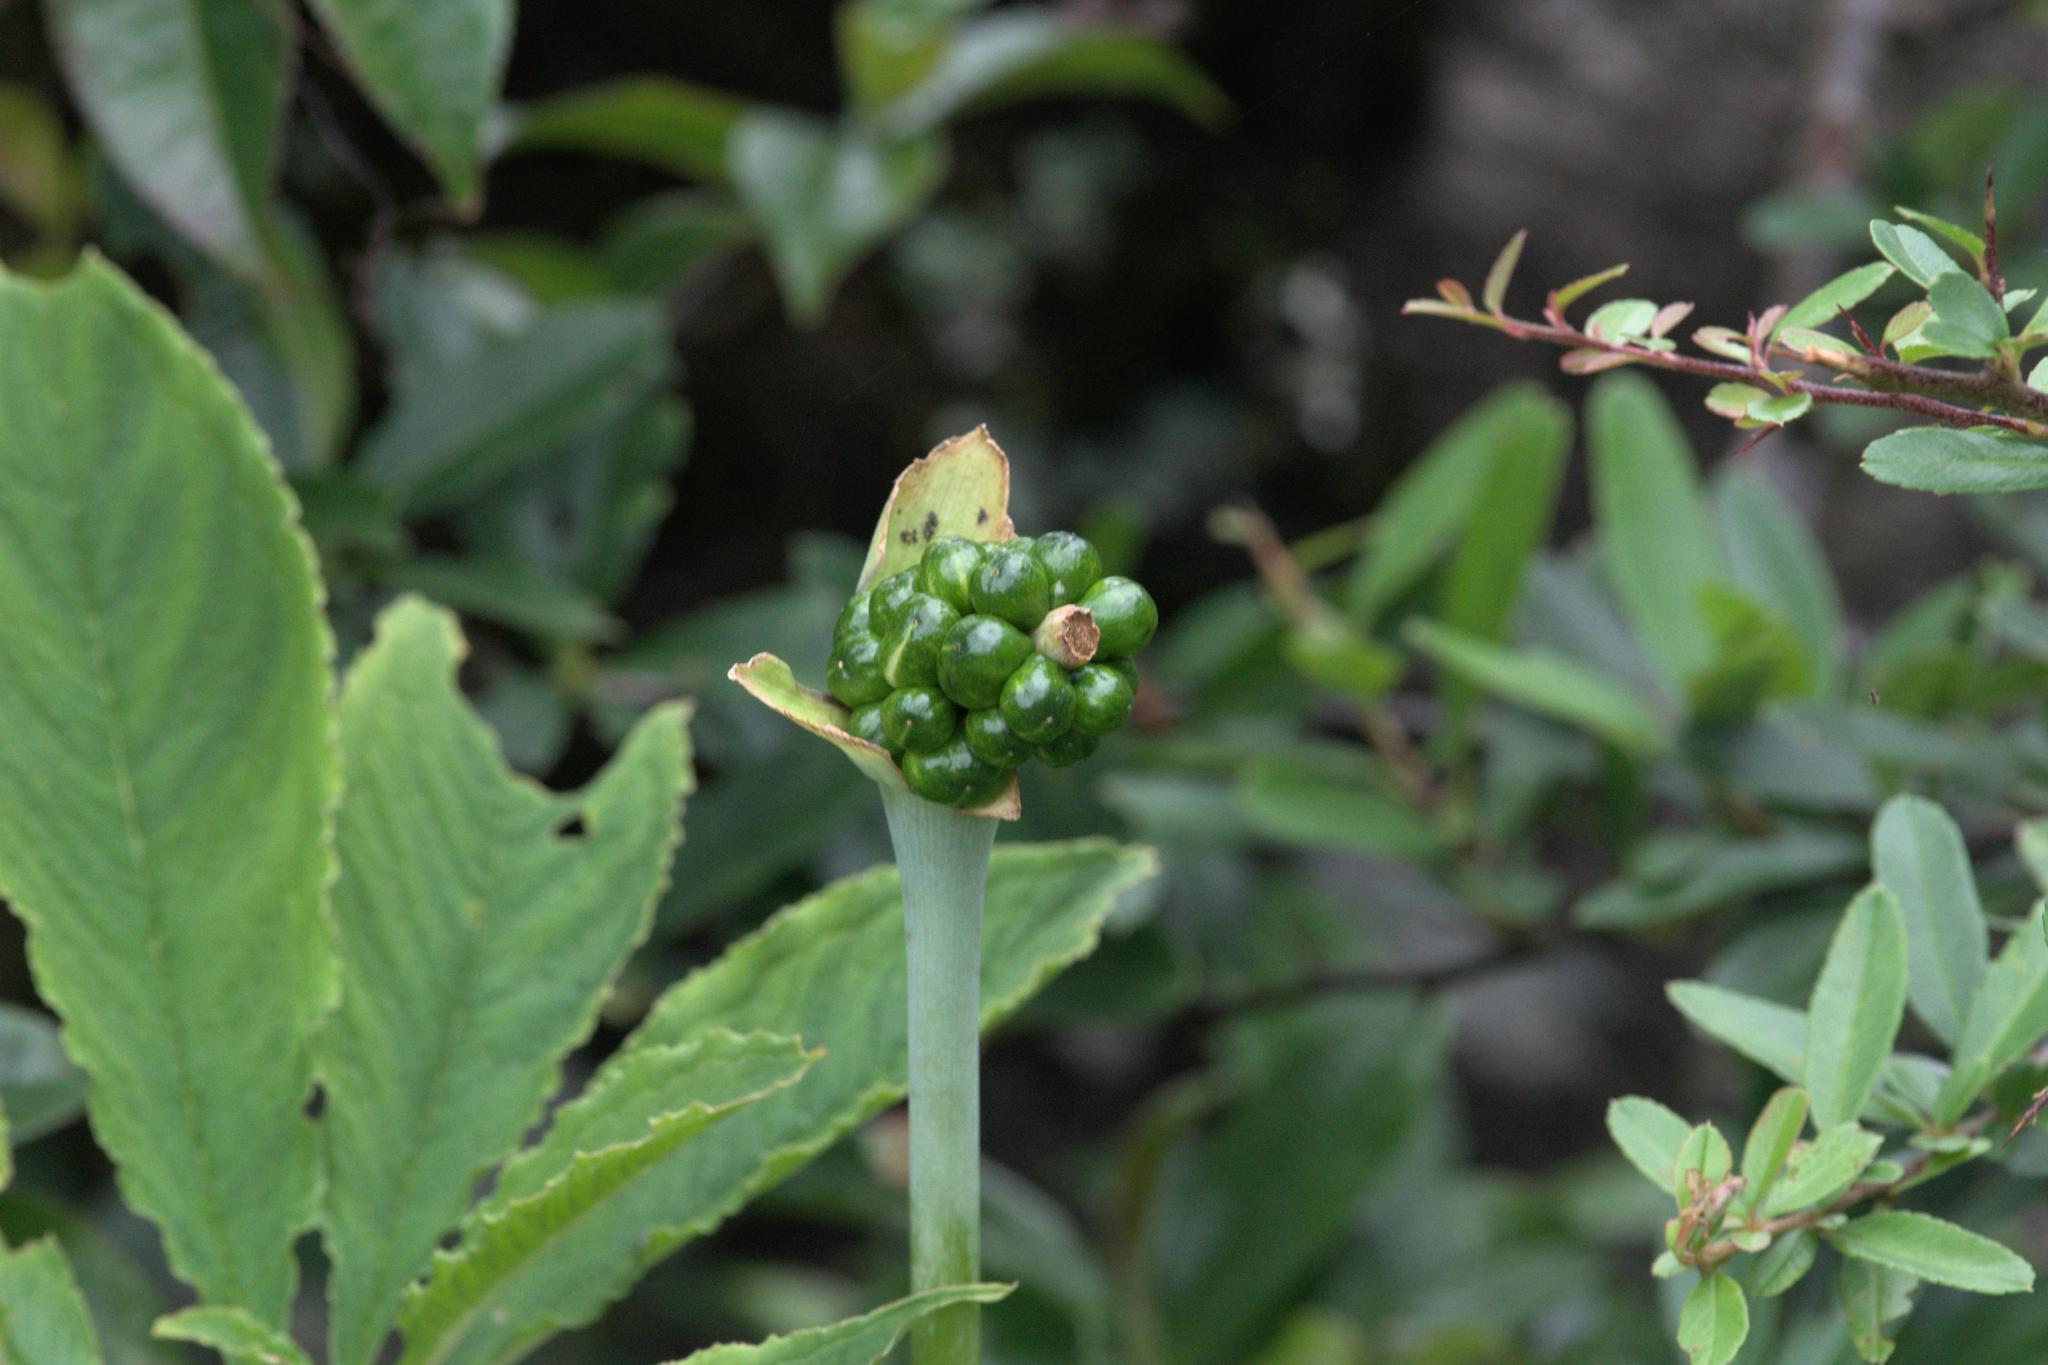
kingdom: Plantae
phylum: Tracheophyta
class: Liliopsida
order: Alismatales
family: Araceae
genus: Arisaema
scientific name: Arisaema tortuosum
